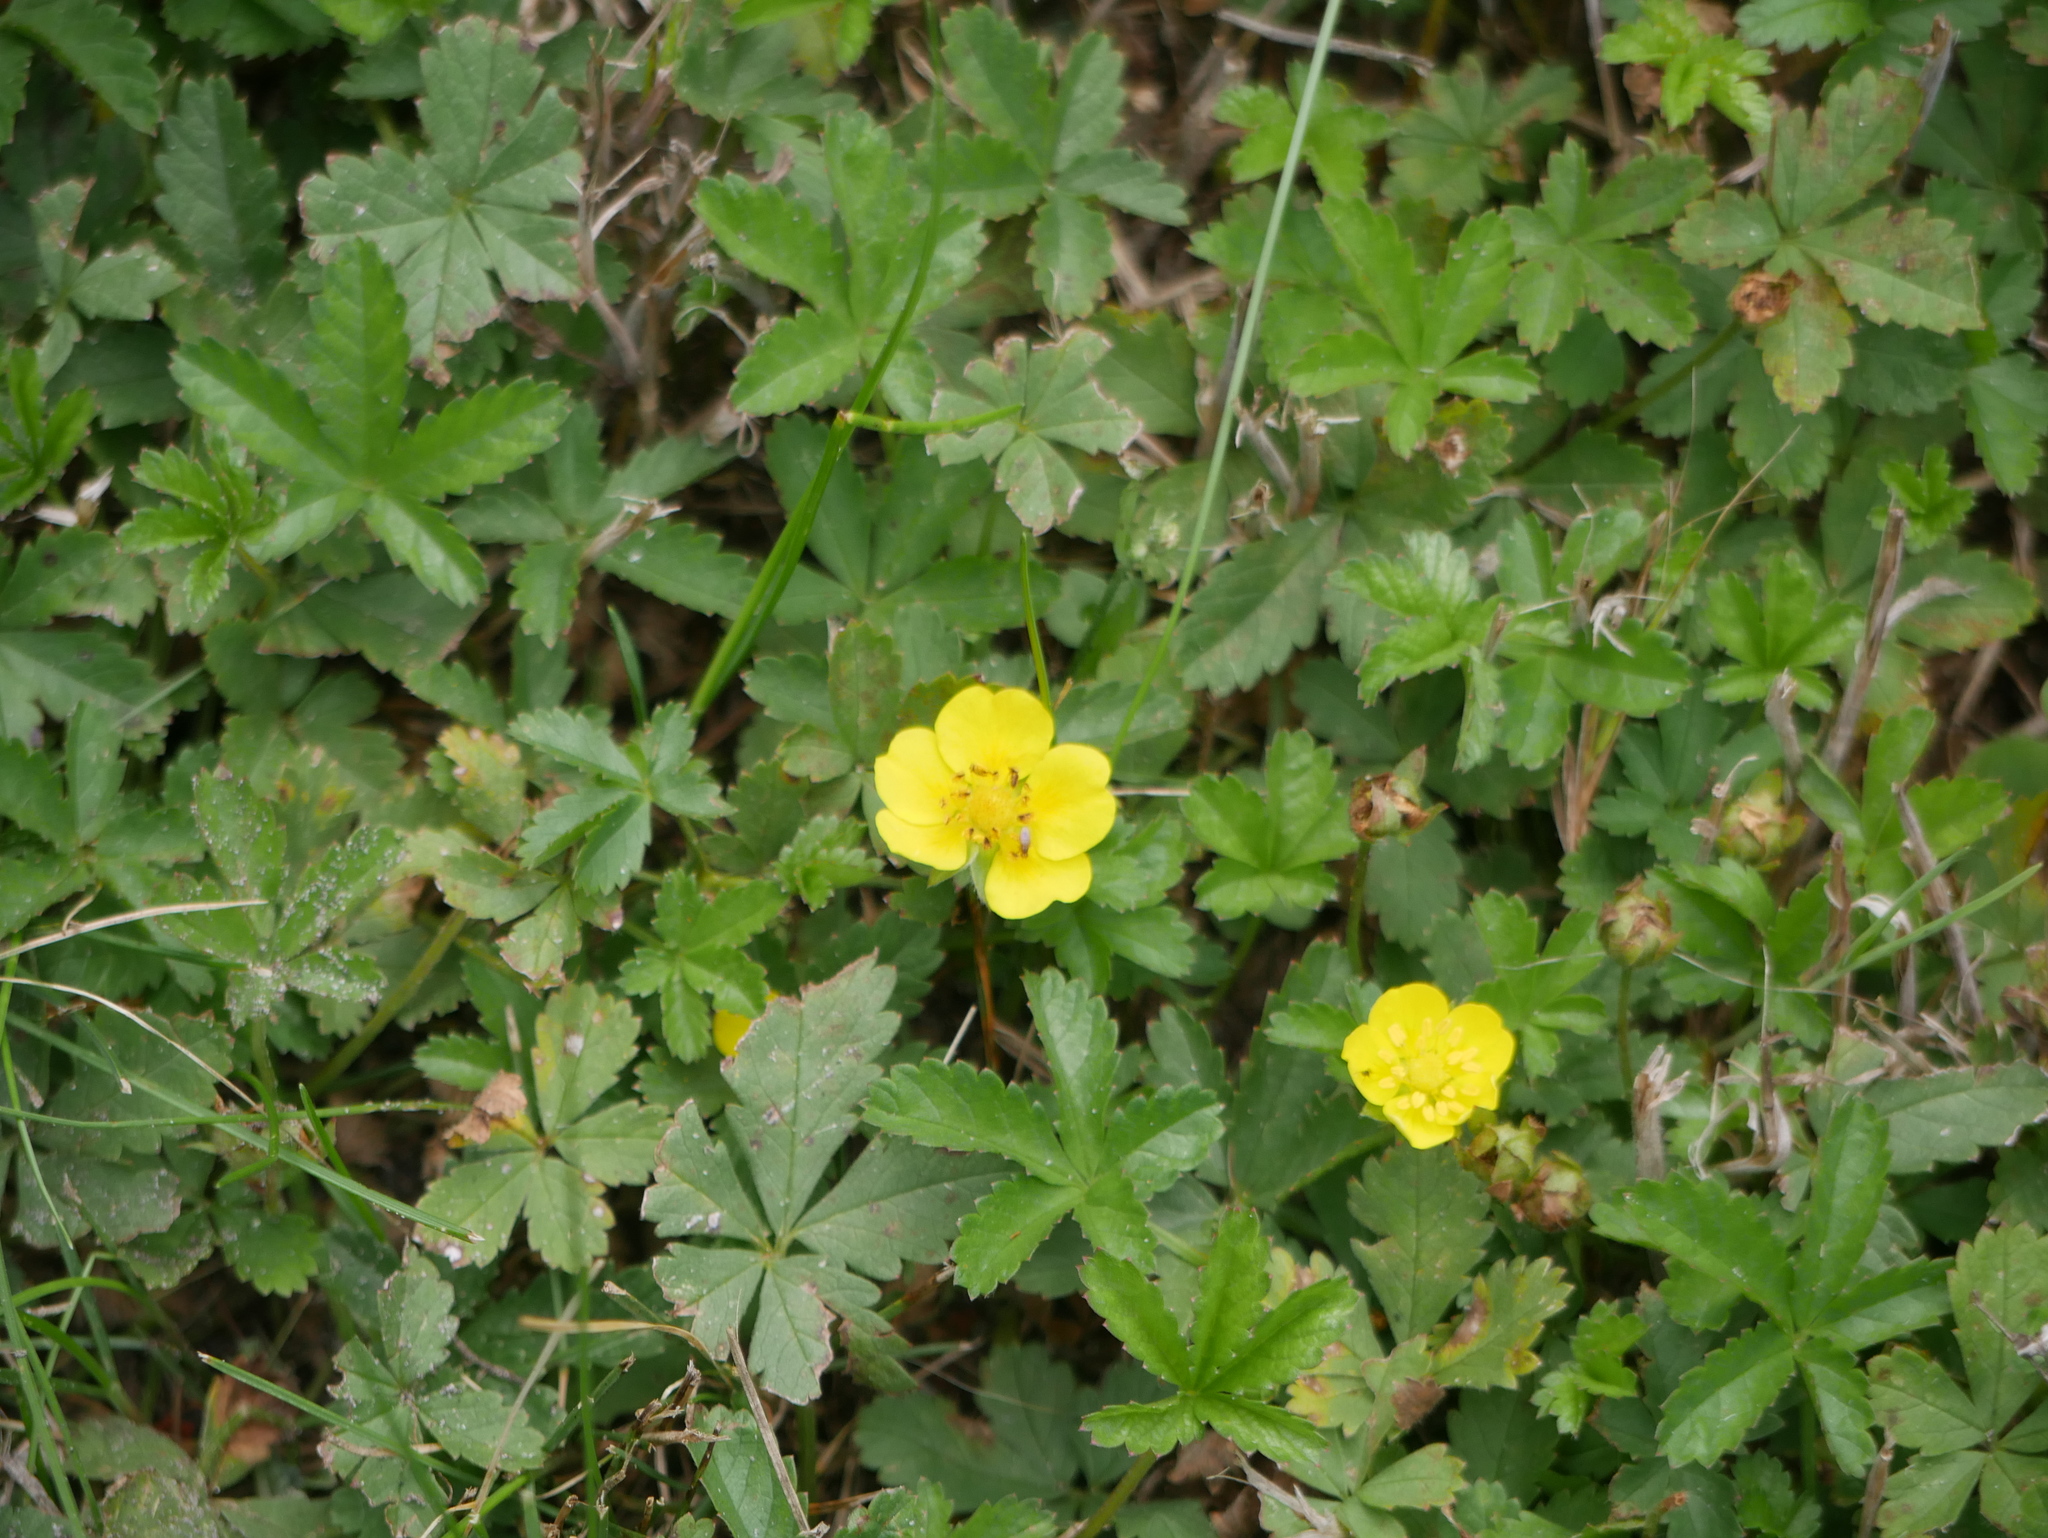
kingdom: Plantae
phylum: Tracheophyta
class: Magnoliopsida
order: Rosales
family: Rosaceae
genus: Potentilla
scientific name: Potentilla reptans
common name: Creeping cinquefoil
